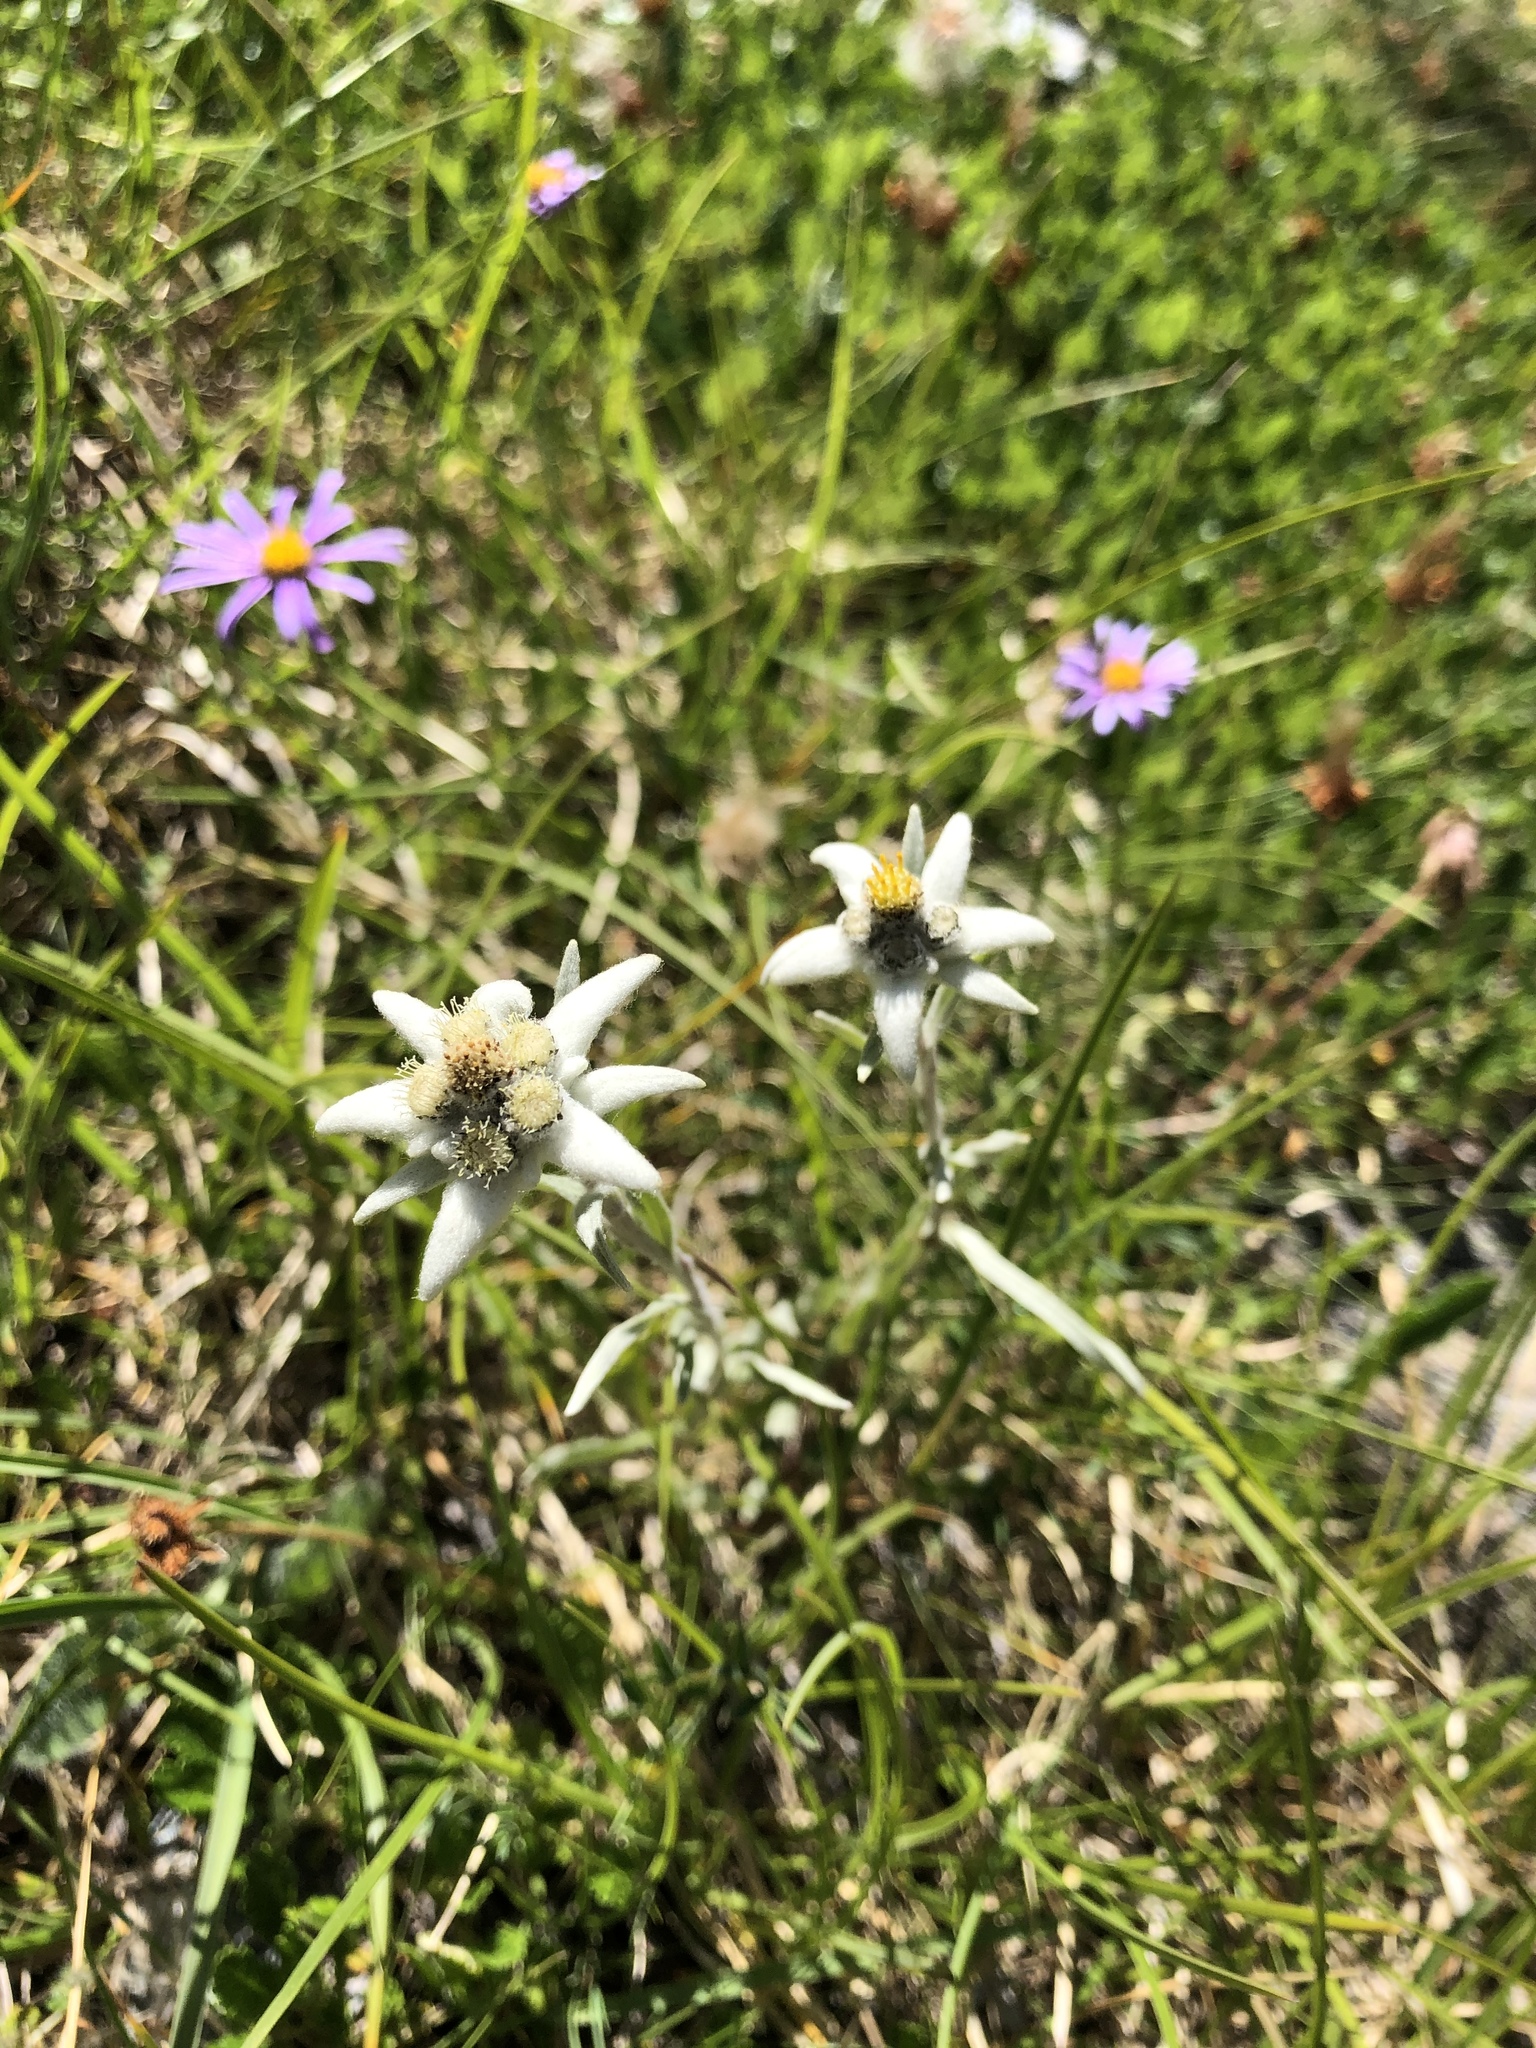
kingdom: Plantae
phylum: Tracheophyta
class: Magnoliopsida
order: Asterales
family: Asteraceae
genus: Leontopodium
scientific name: Leontopodium nivale
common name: Edelweiss
